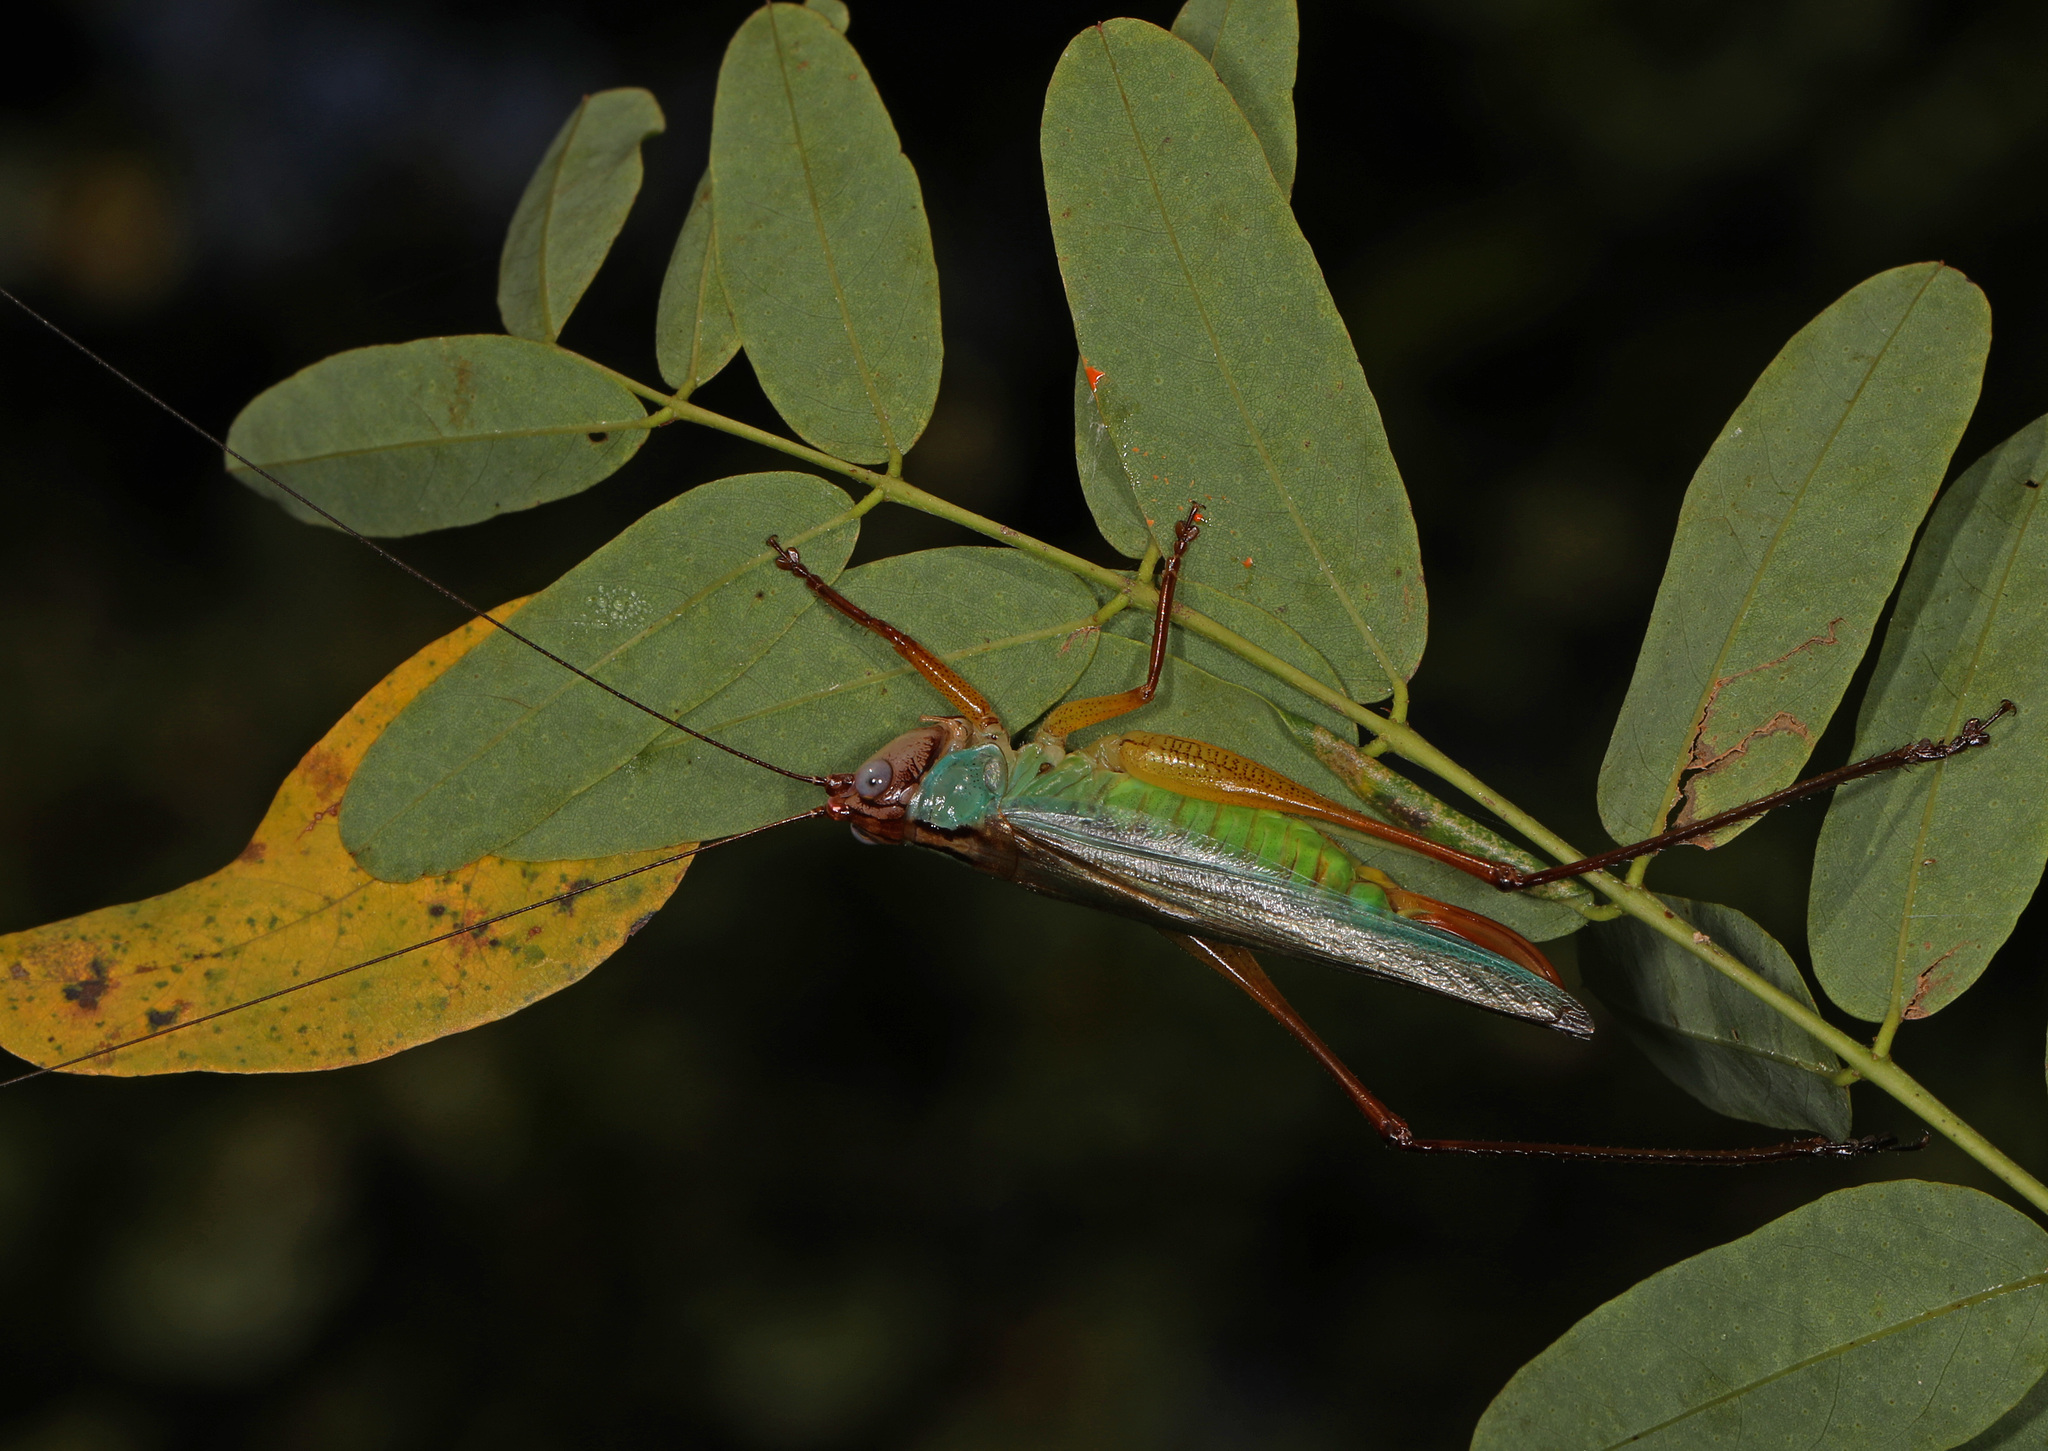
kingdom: Animalia
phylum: Arthropoda
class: Insecta
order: Orthoptera
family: Tettigoniidae
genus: Orchelimum
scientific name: Orchelimum pulchellum
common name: Handsome meadow katydid
